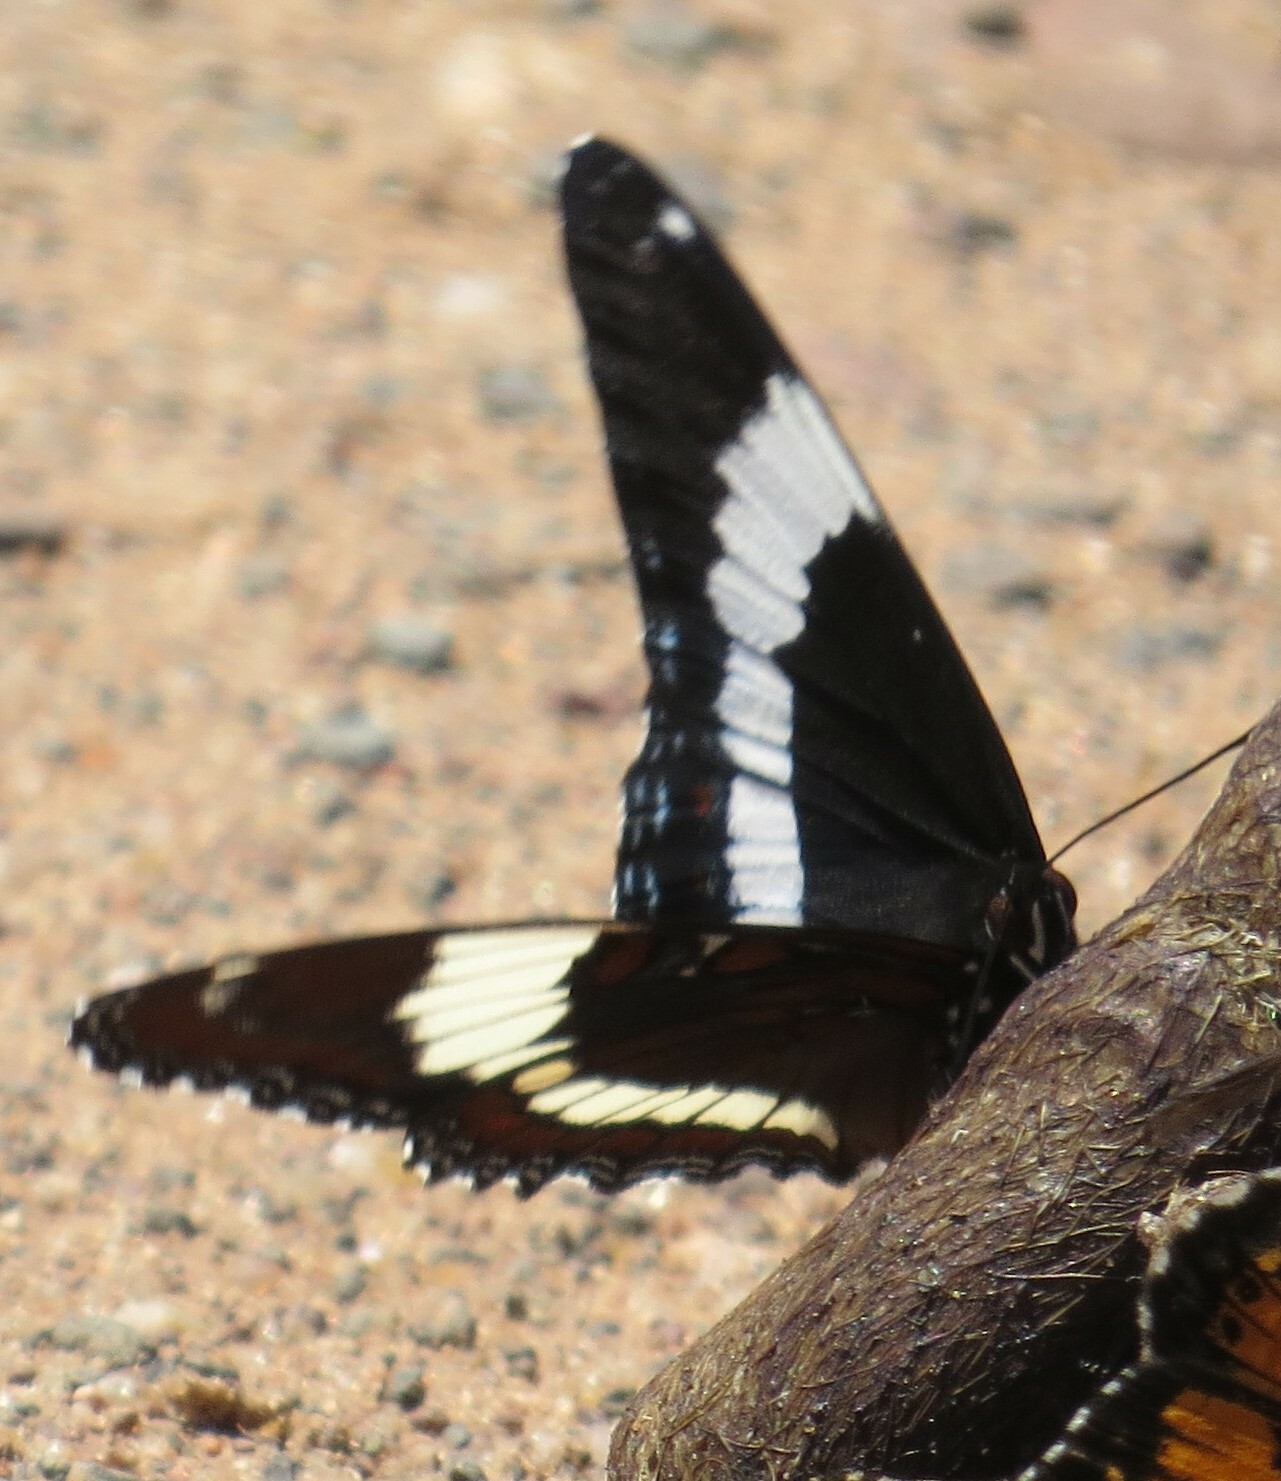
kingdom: Animalia
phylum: Arthropoda
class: Insecta
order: Lepidoptera
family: Nymphalidae
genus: Limenitis
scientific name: Limenitis arthemis
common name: Red-spotted admiral
